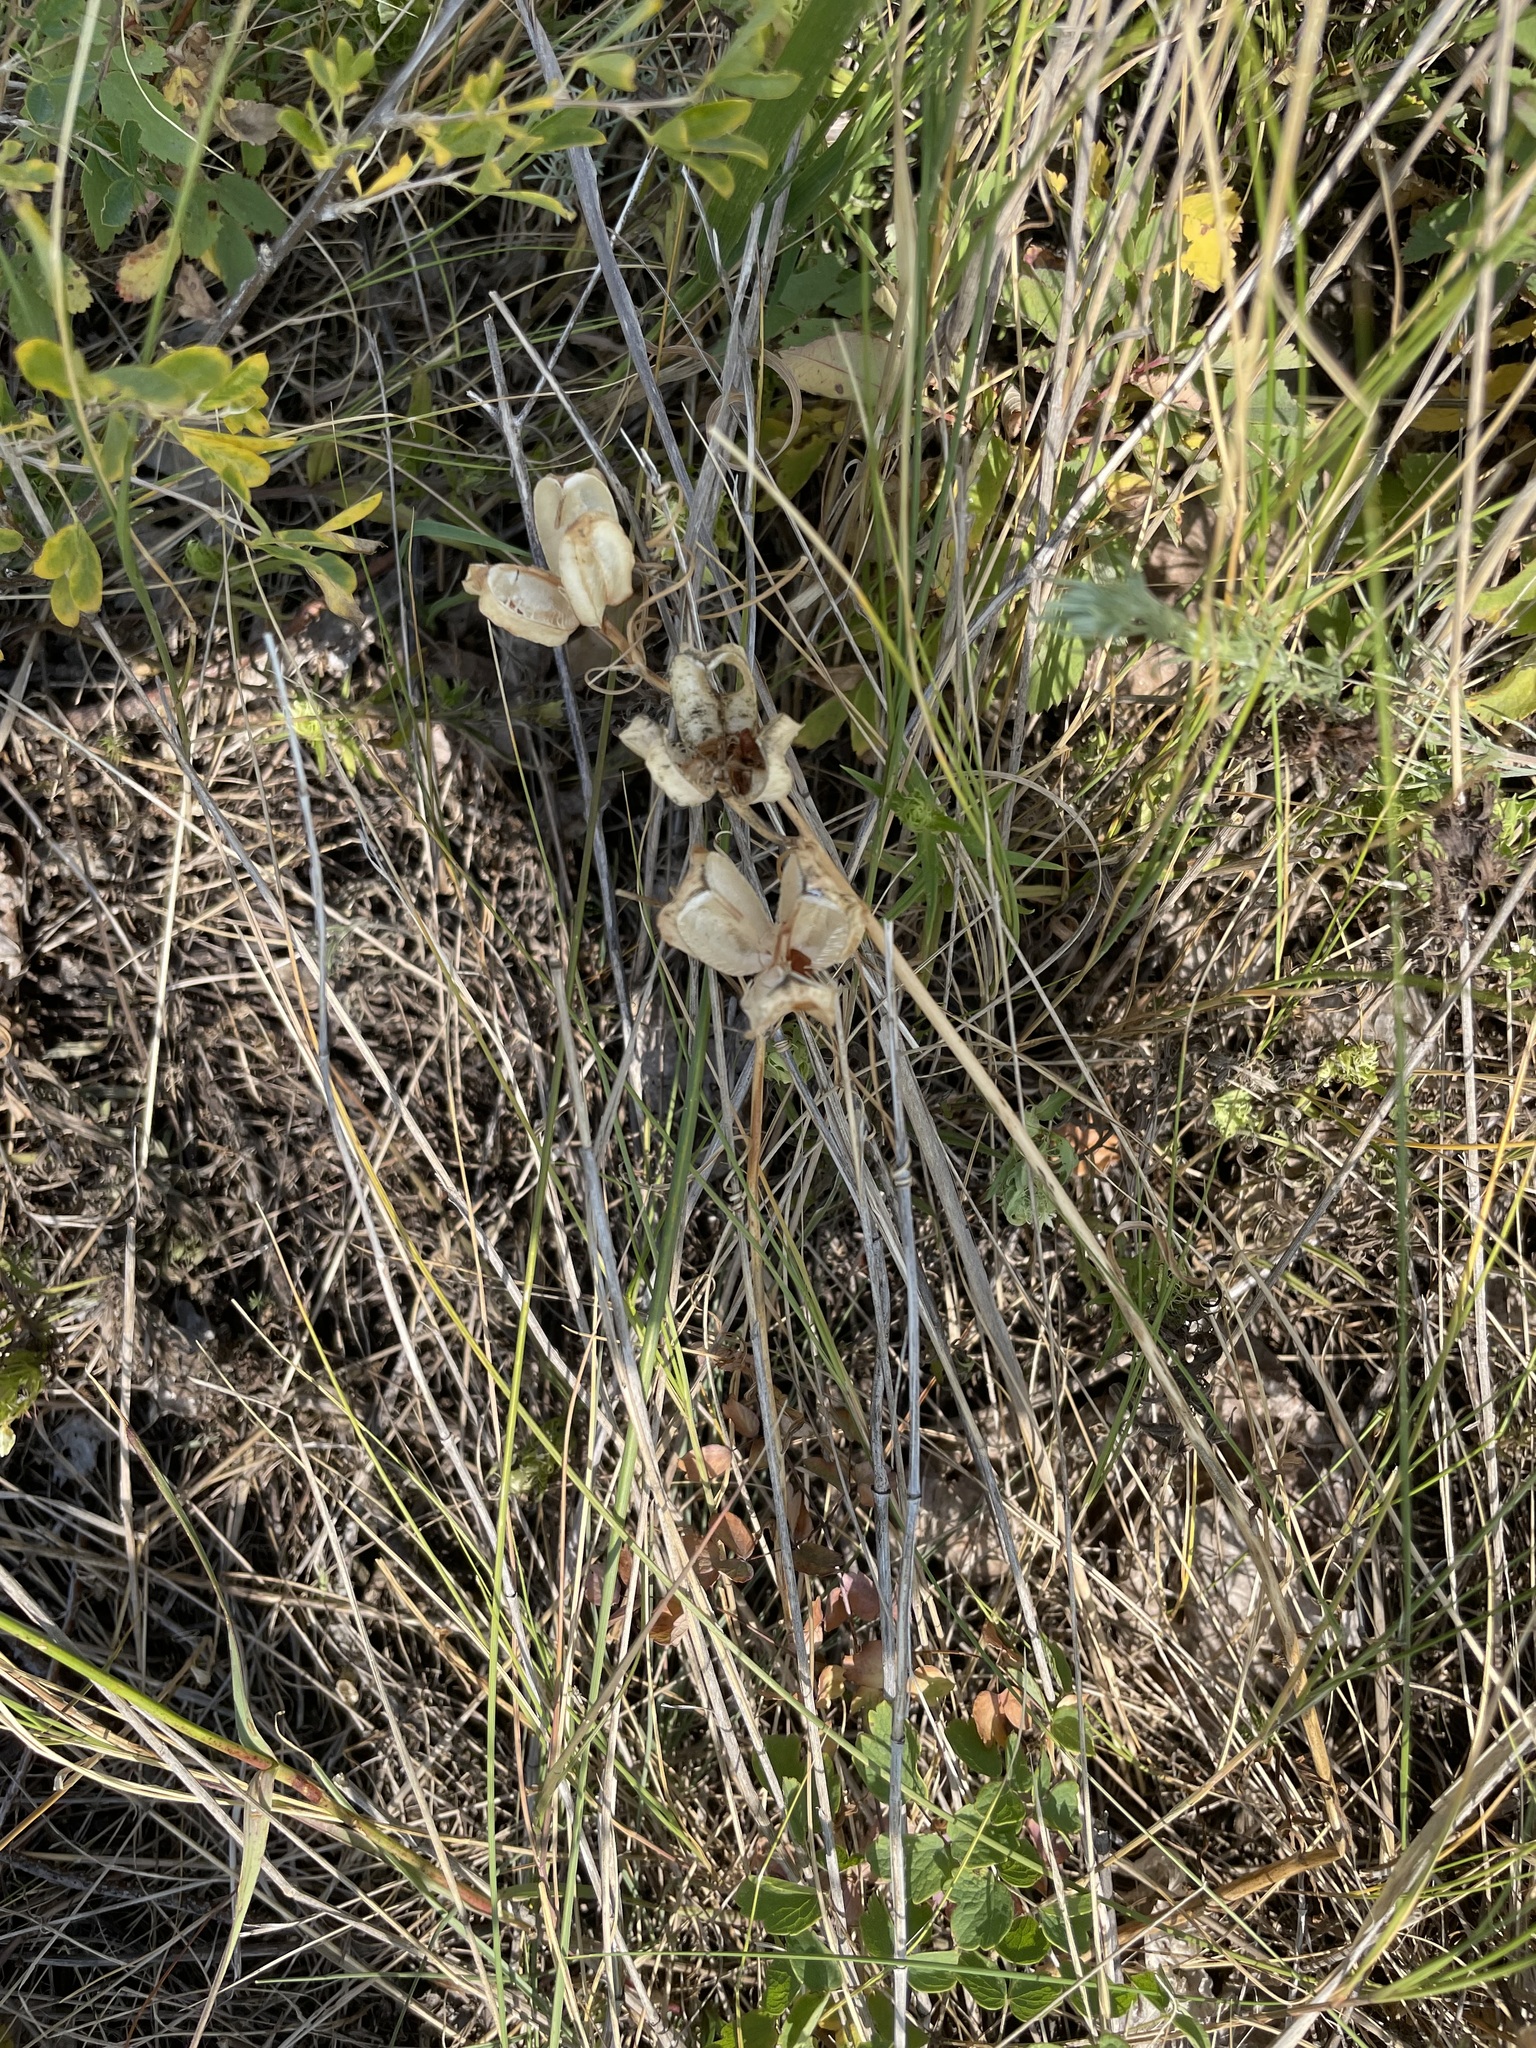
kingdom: Plantae
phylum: Tracheophyta
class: Liliopsida
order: Liliales
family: Liliaceae
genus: Fritillaria
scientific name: Fritillaria ruthenica
